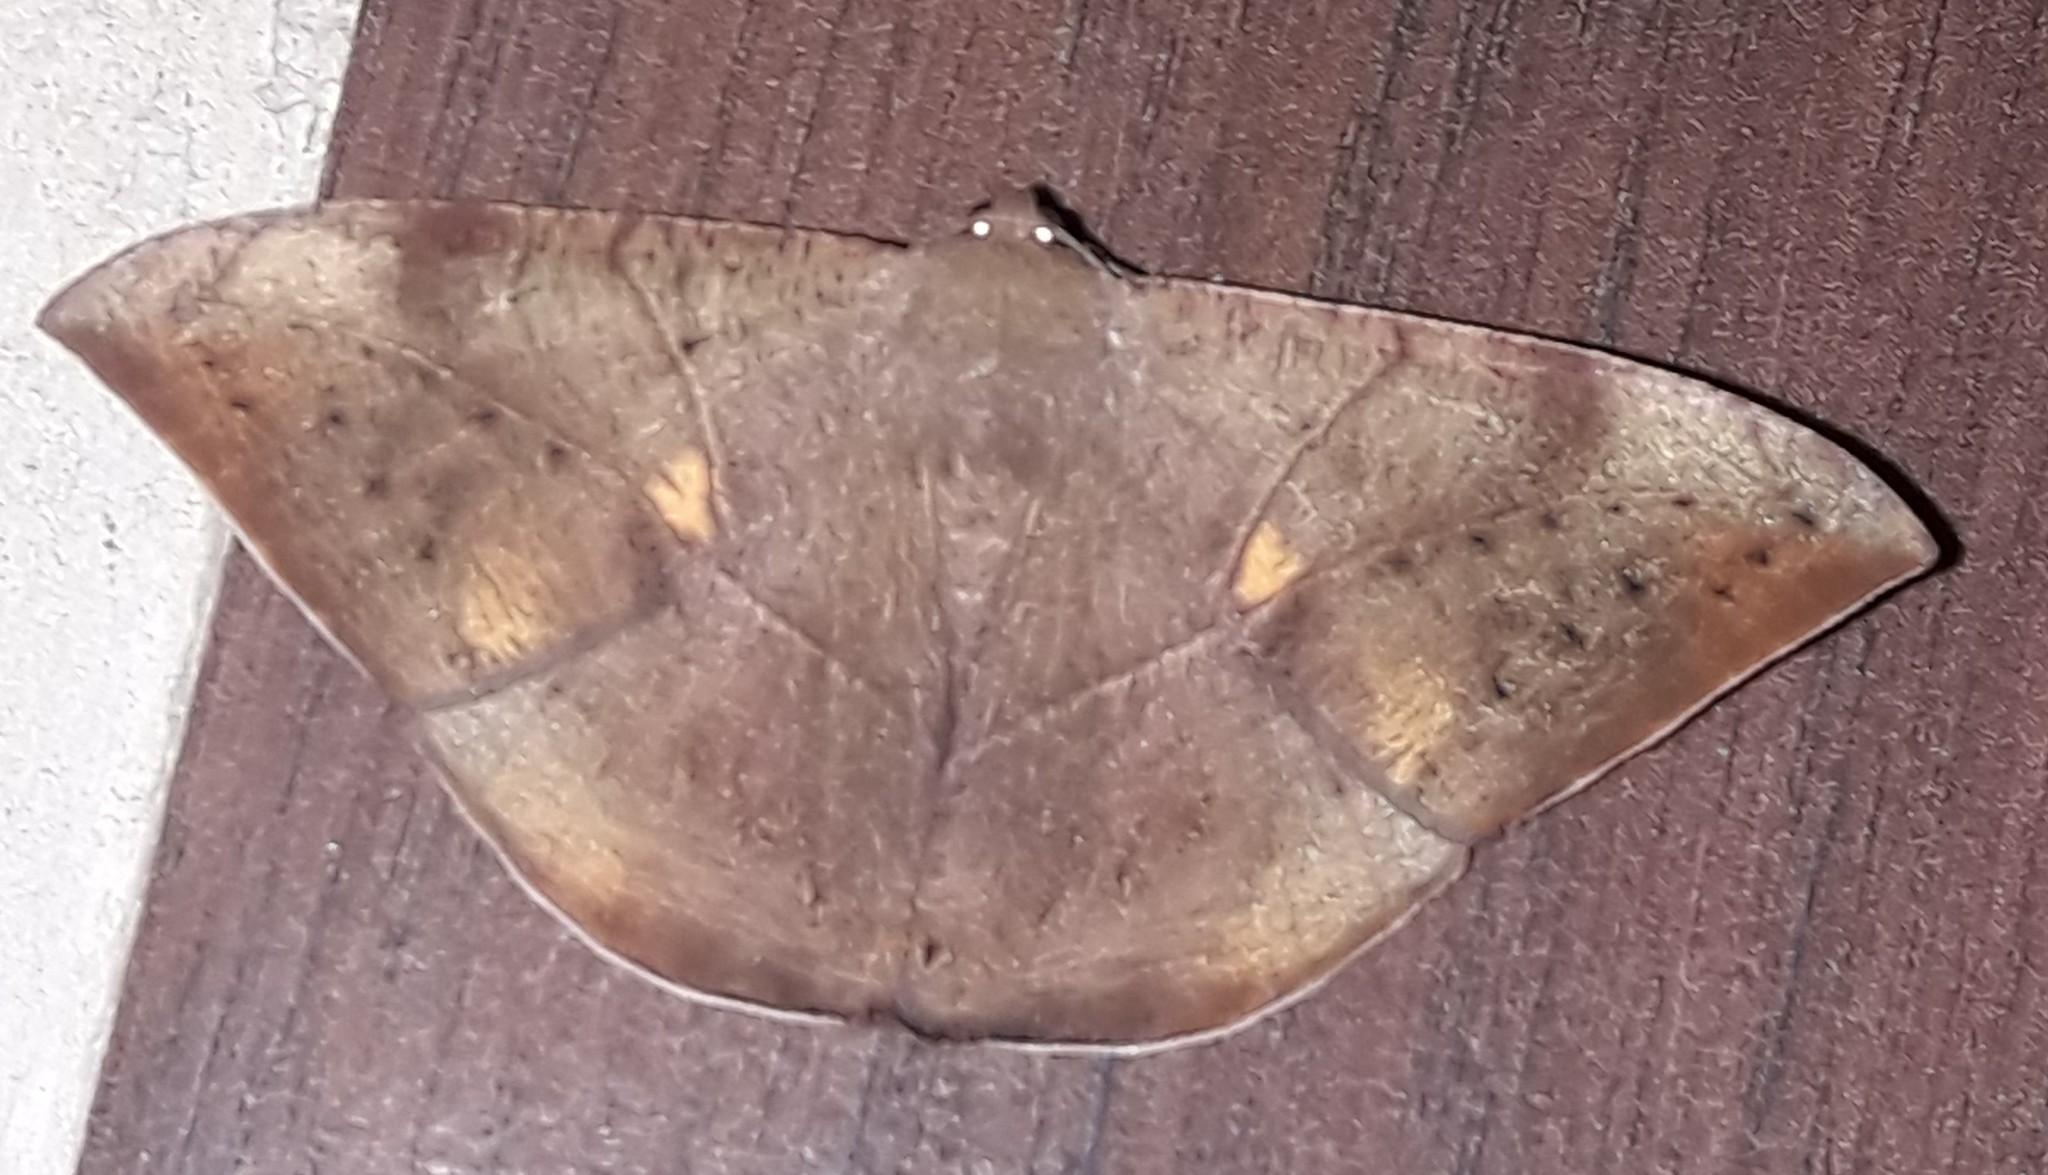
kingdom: Animalia
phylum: Arthropoda
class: Insecta
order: Lepidoptera
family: Geometridae
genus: Oxydia
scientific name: Oxydia trychiata
